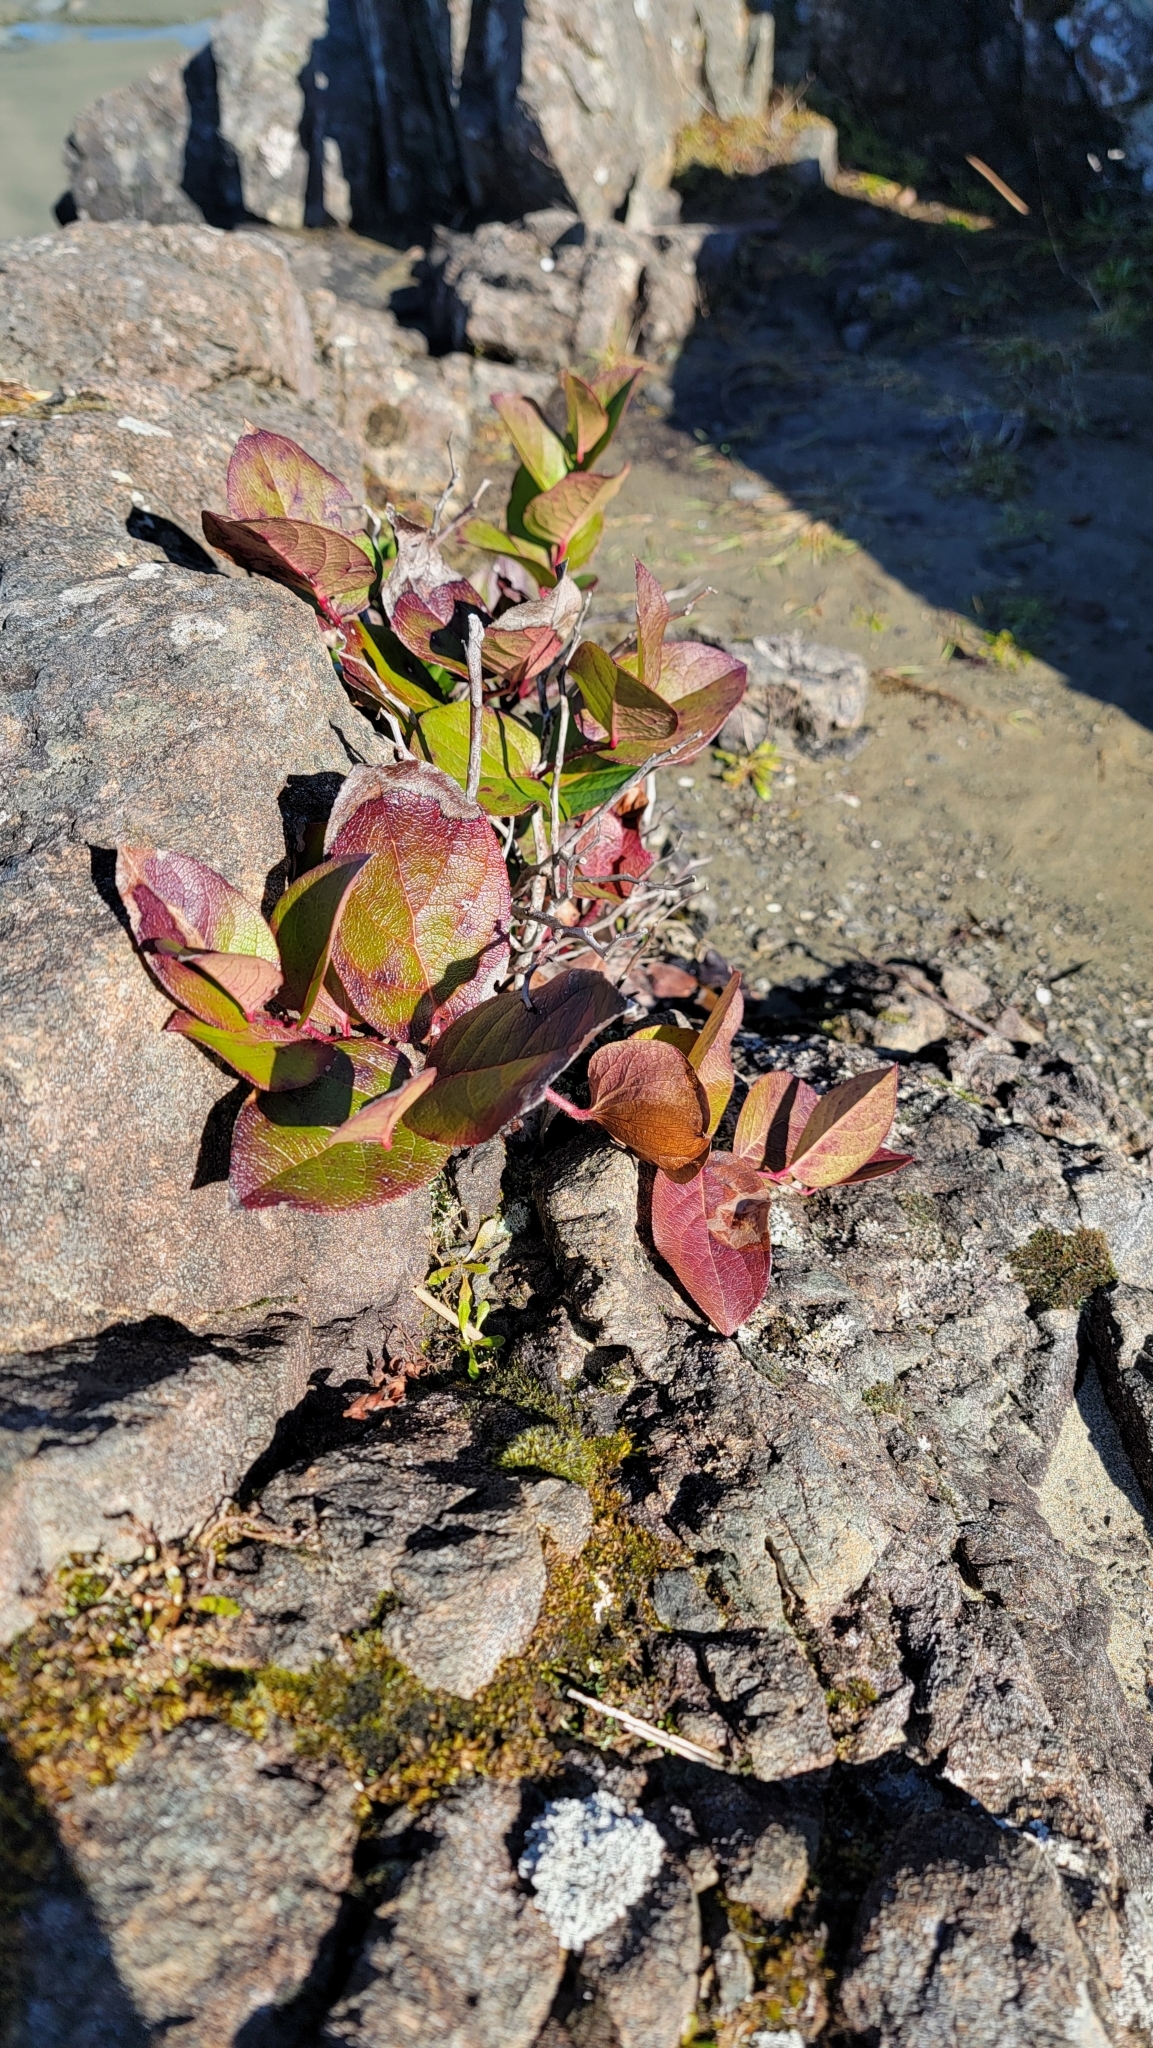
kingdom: Plantae
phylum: Tracheophyta
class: Magnoliopsida
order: Ericales
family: Ericaceae
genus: Gaultheria
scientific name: Gaultheria shallon
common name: Shallon
